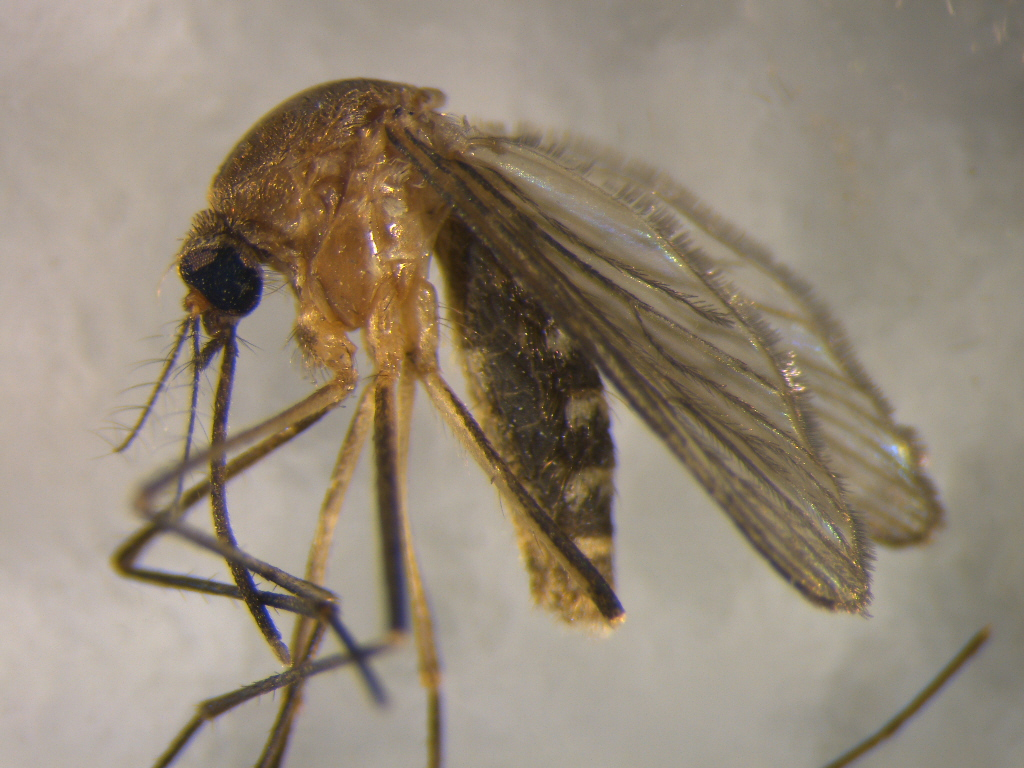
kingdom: Animalia
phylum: Arthropoda
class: Insecta
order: Diptera
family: Culicidae
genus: Culex
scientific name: Culex quinquefasciatus
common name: Southern house mosquito
